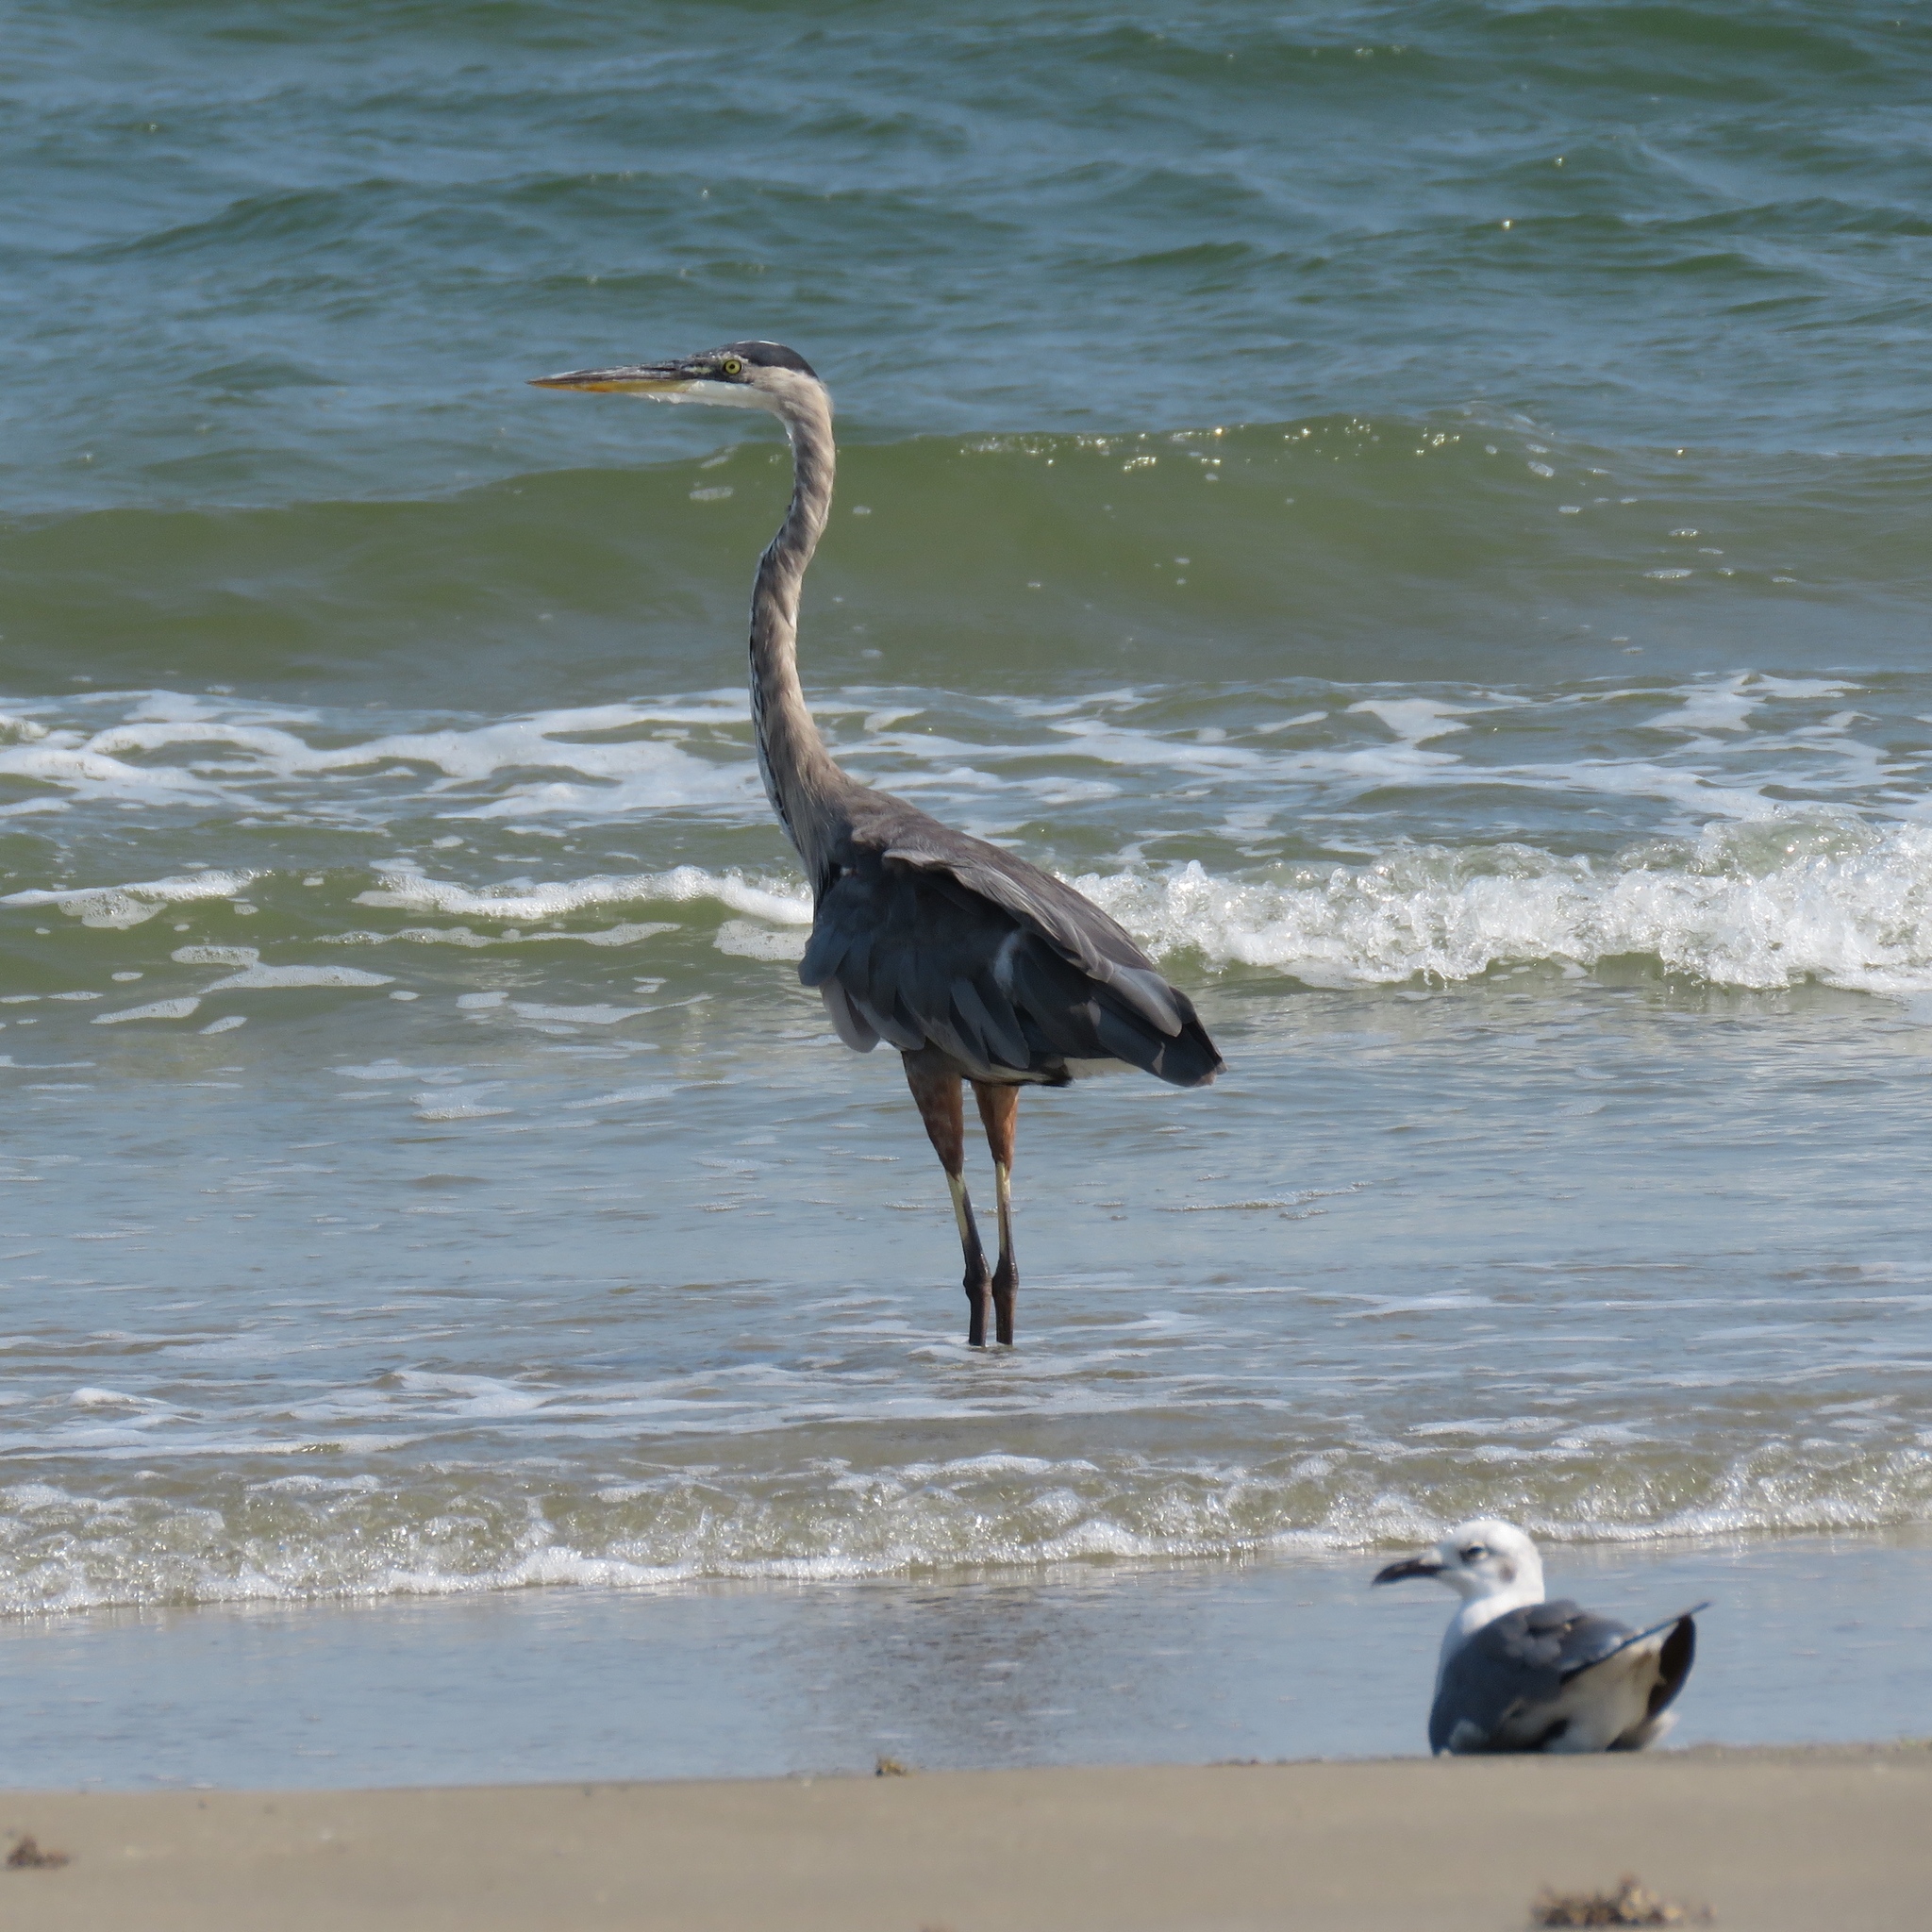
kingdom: Animalia
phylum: Chordata
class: Aves
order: Pelecaniformes
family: Ardeidae
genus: Ardea
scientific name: Ardea herodias
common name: Great blue heron
